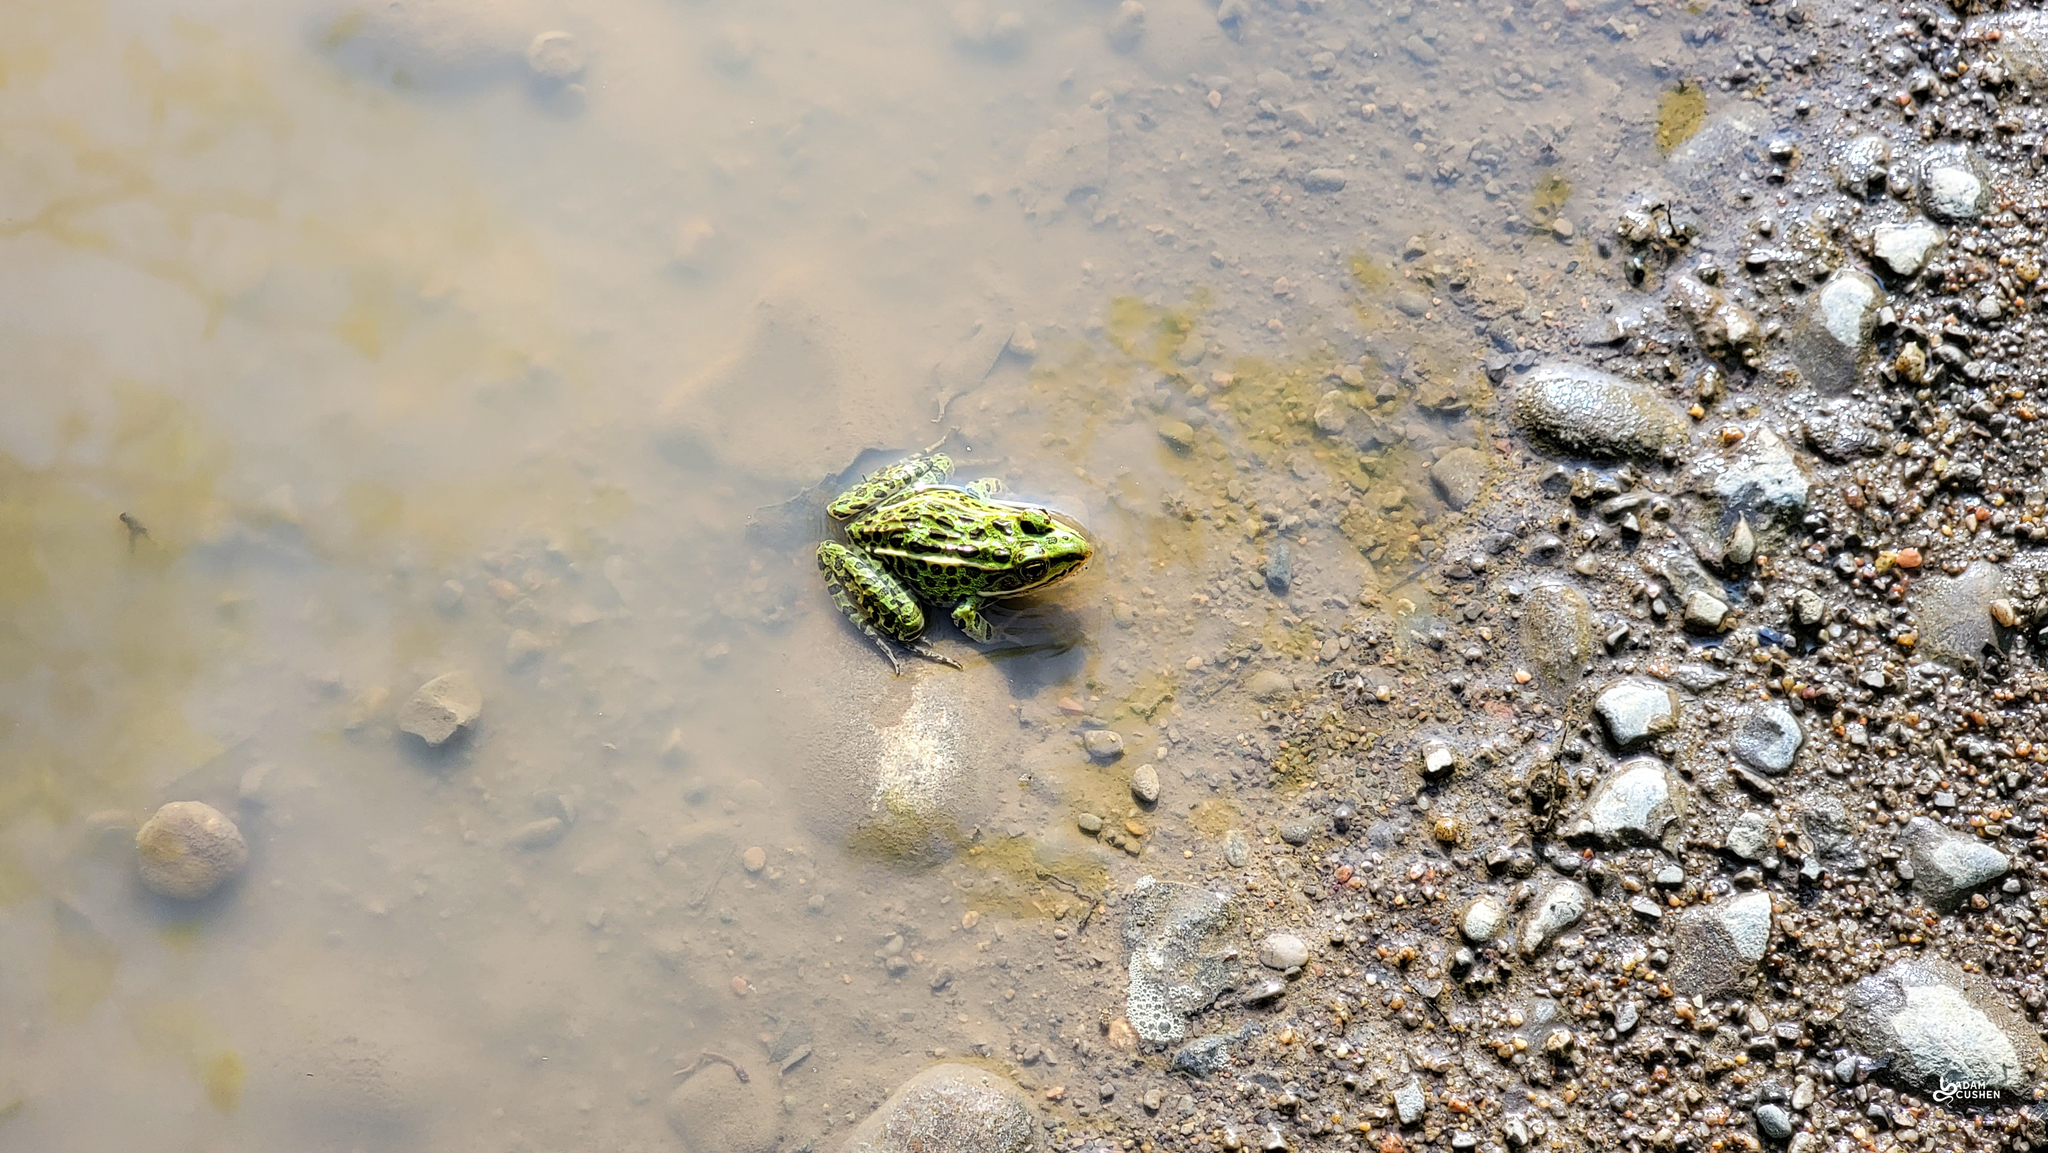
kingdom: Animalia
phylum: Chordata
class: Amphibia
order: Anura
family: Ranidae
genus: Lithobates
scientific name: Lithobates pipiens
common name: Northern leopard frog
